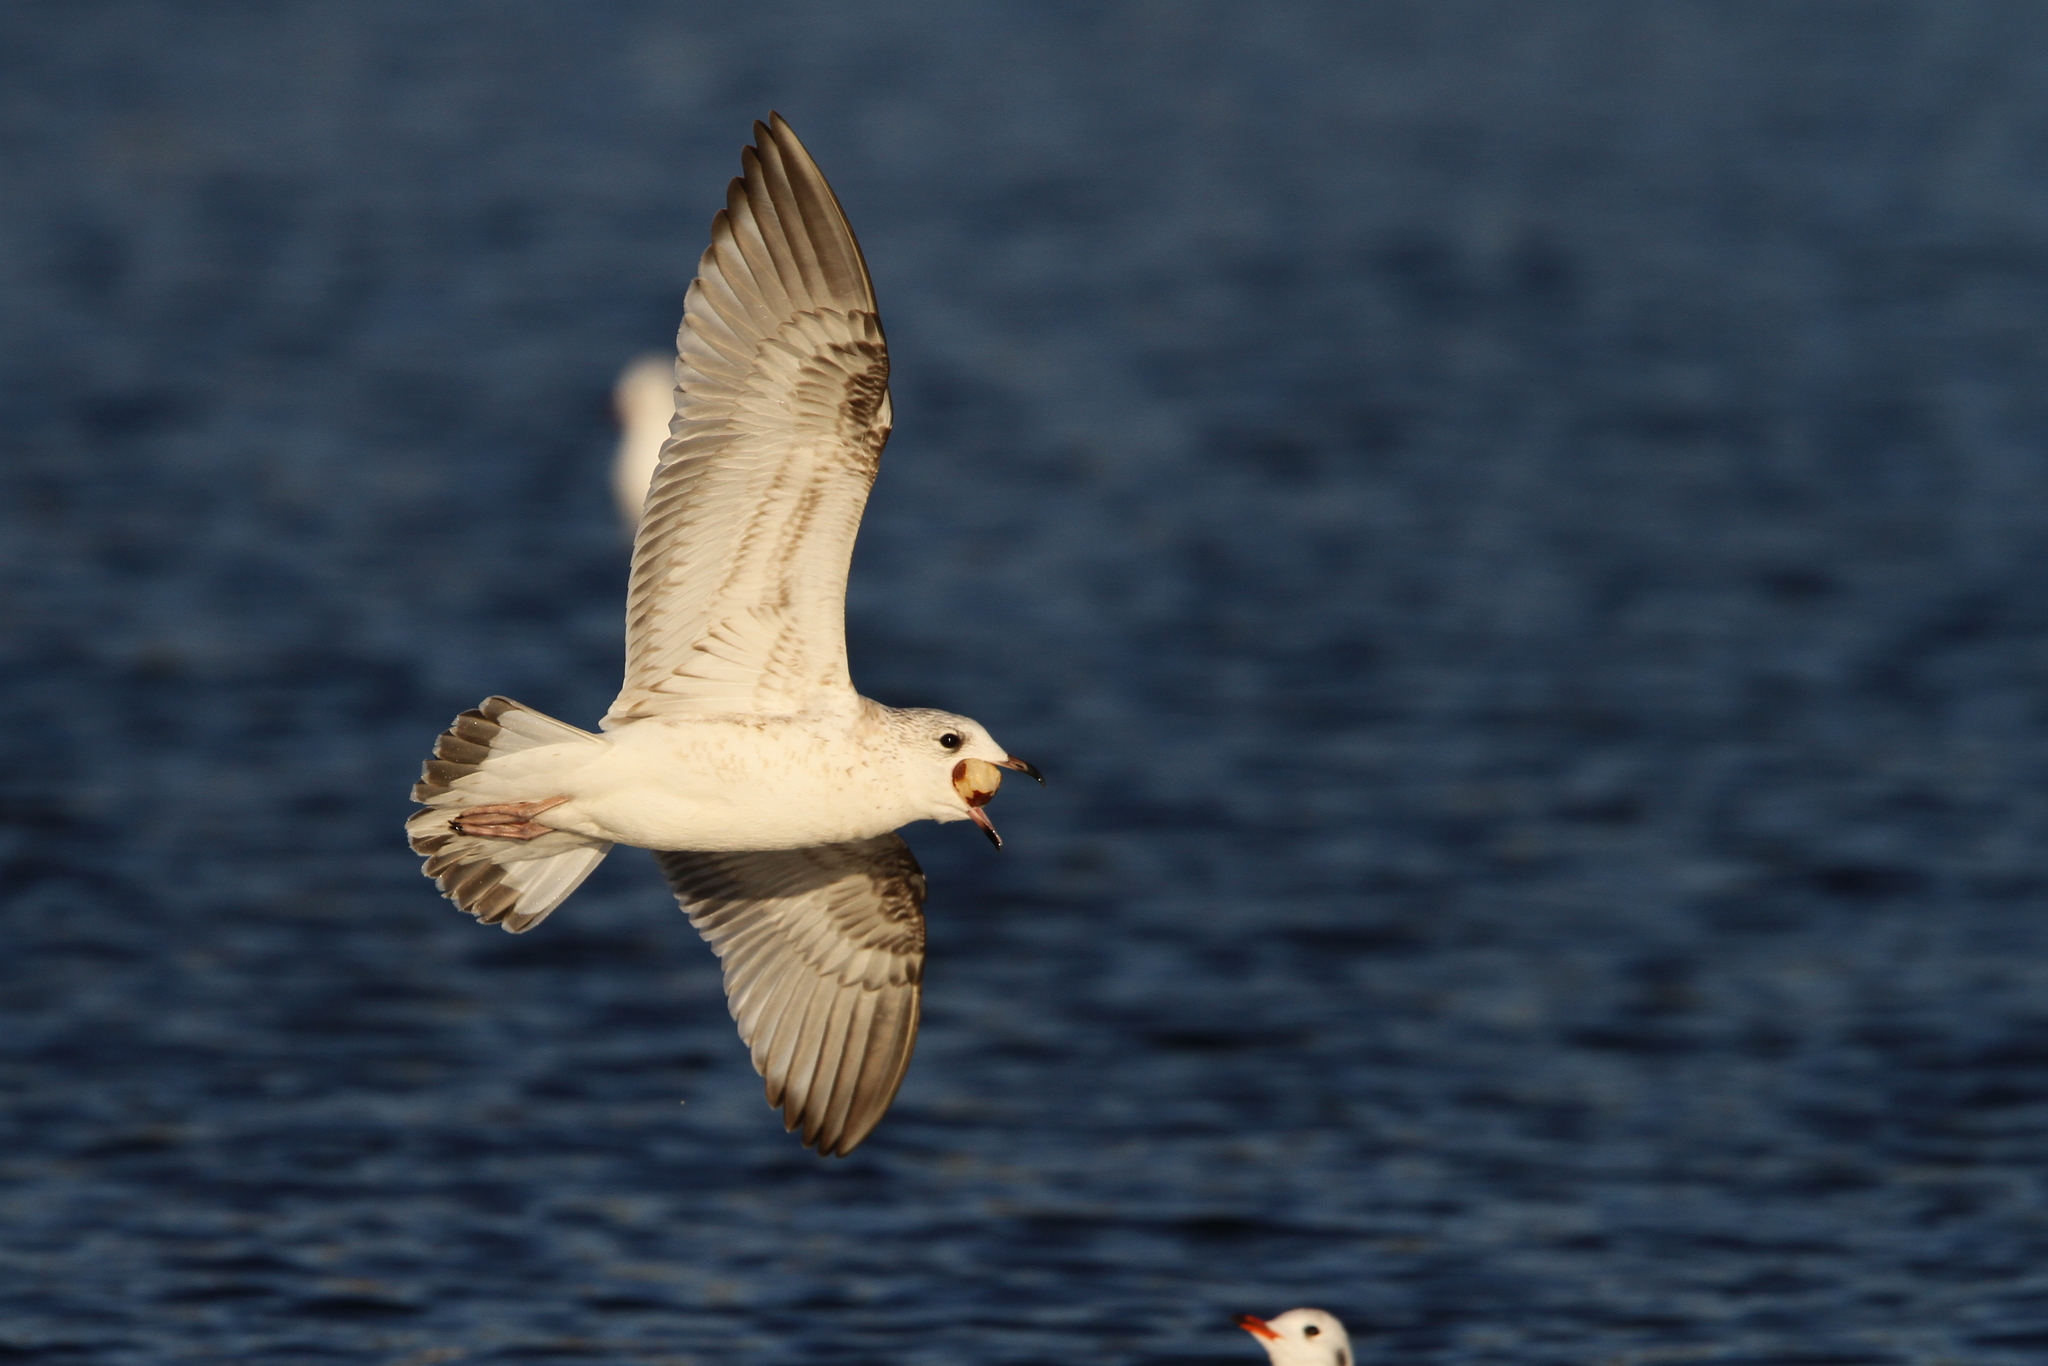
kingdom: Animalia
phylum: Chordata
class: Aves
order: Charadriiformes
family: Laridae
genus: Larus
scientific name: Larus canus
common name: Mew gull
